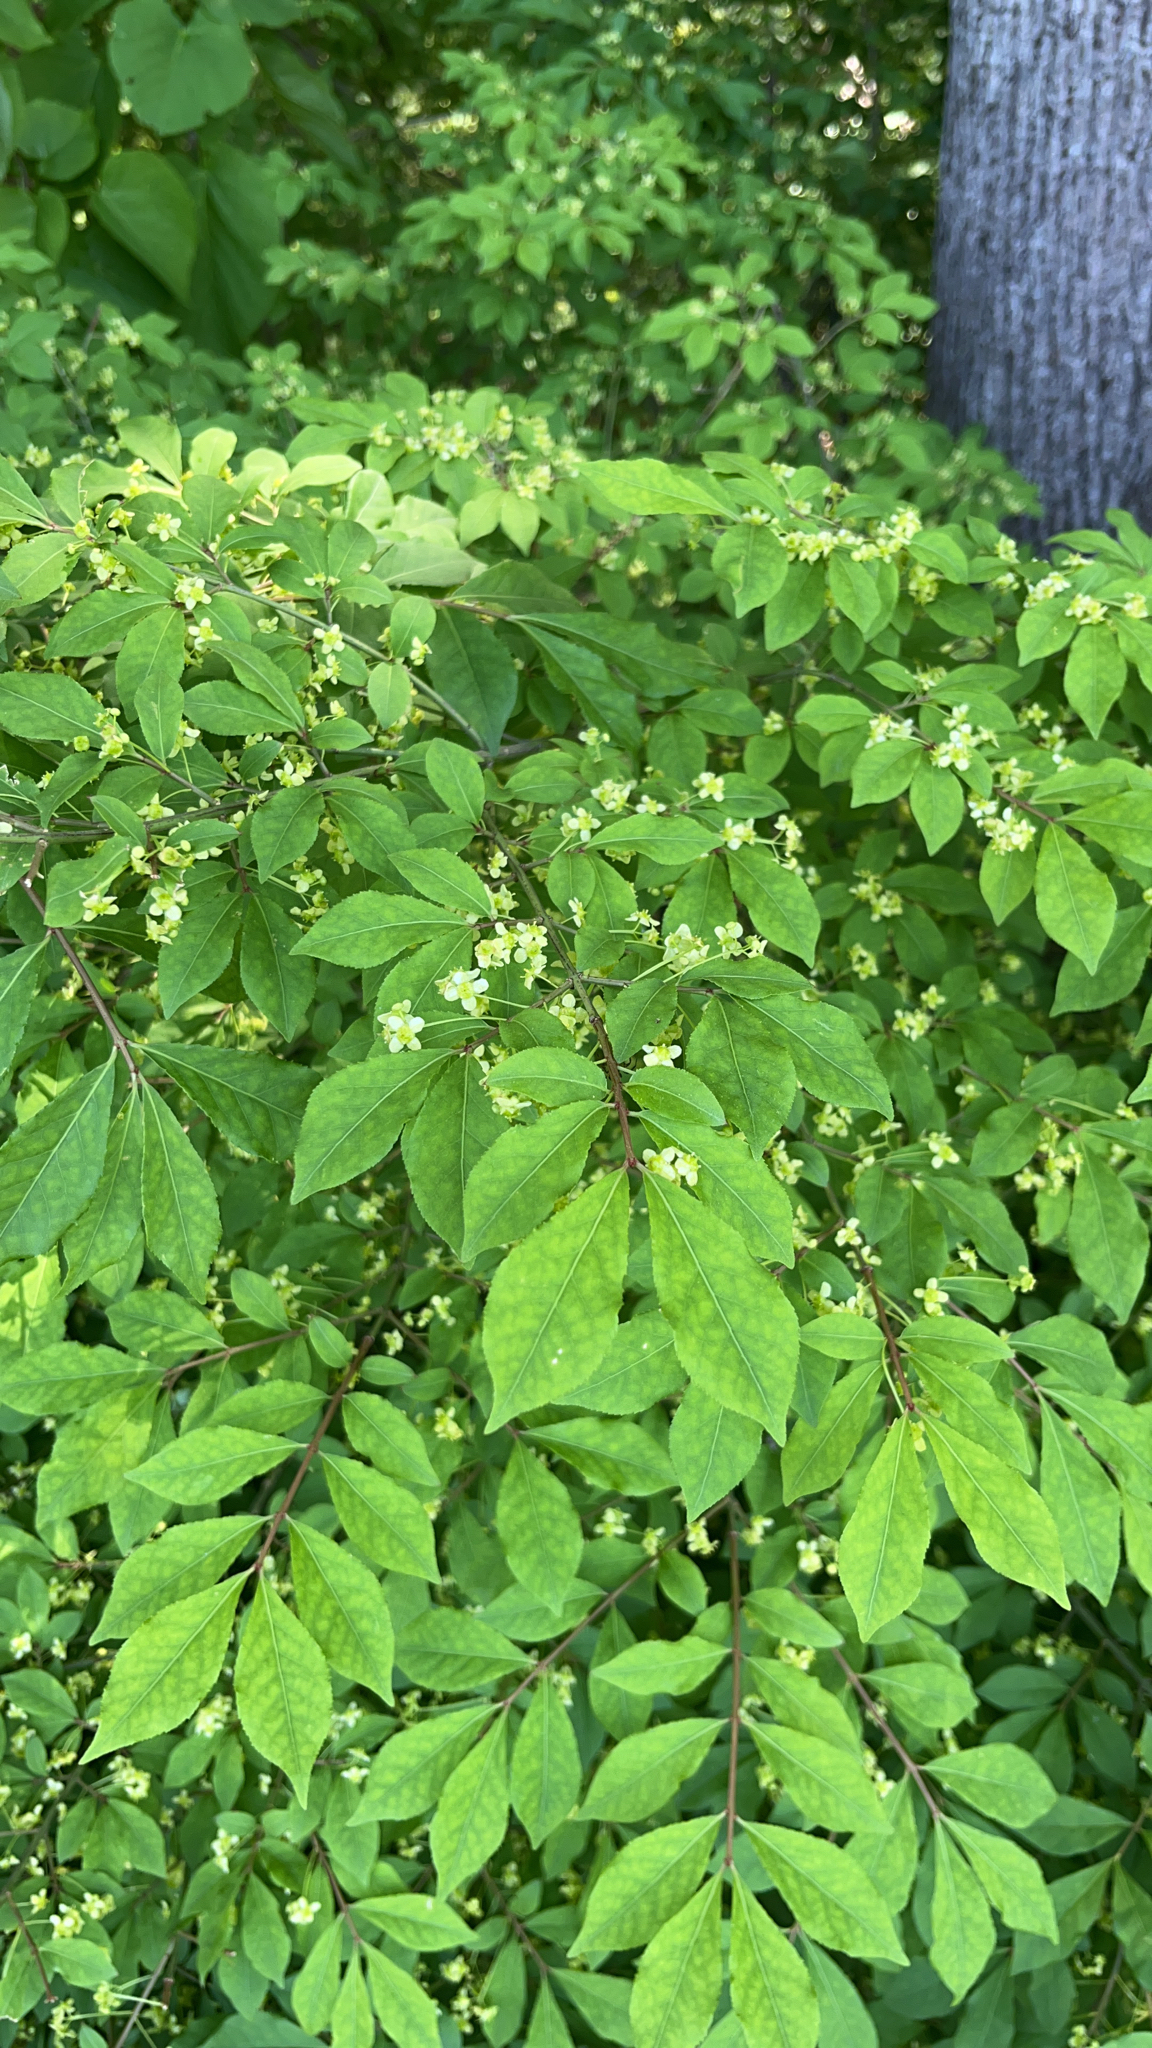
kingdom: Plantae
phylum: Tracheophyta
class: Magnoliopsida
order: Celastrales
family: Celastraceae
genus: Euonymus
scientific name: Euonymus alatus
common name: Winged euonymus
